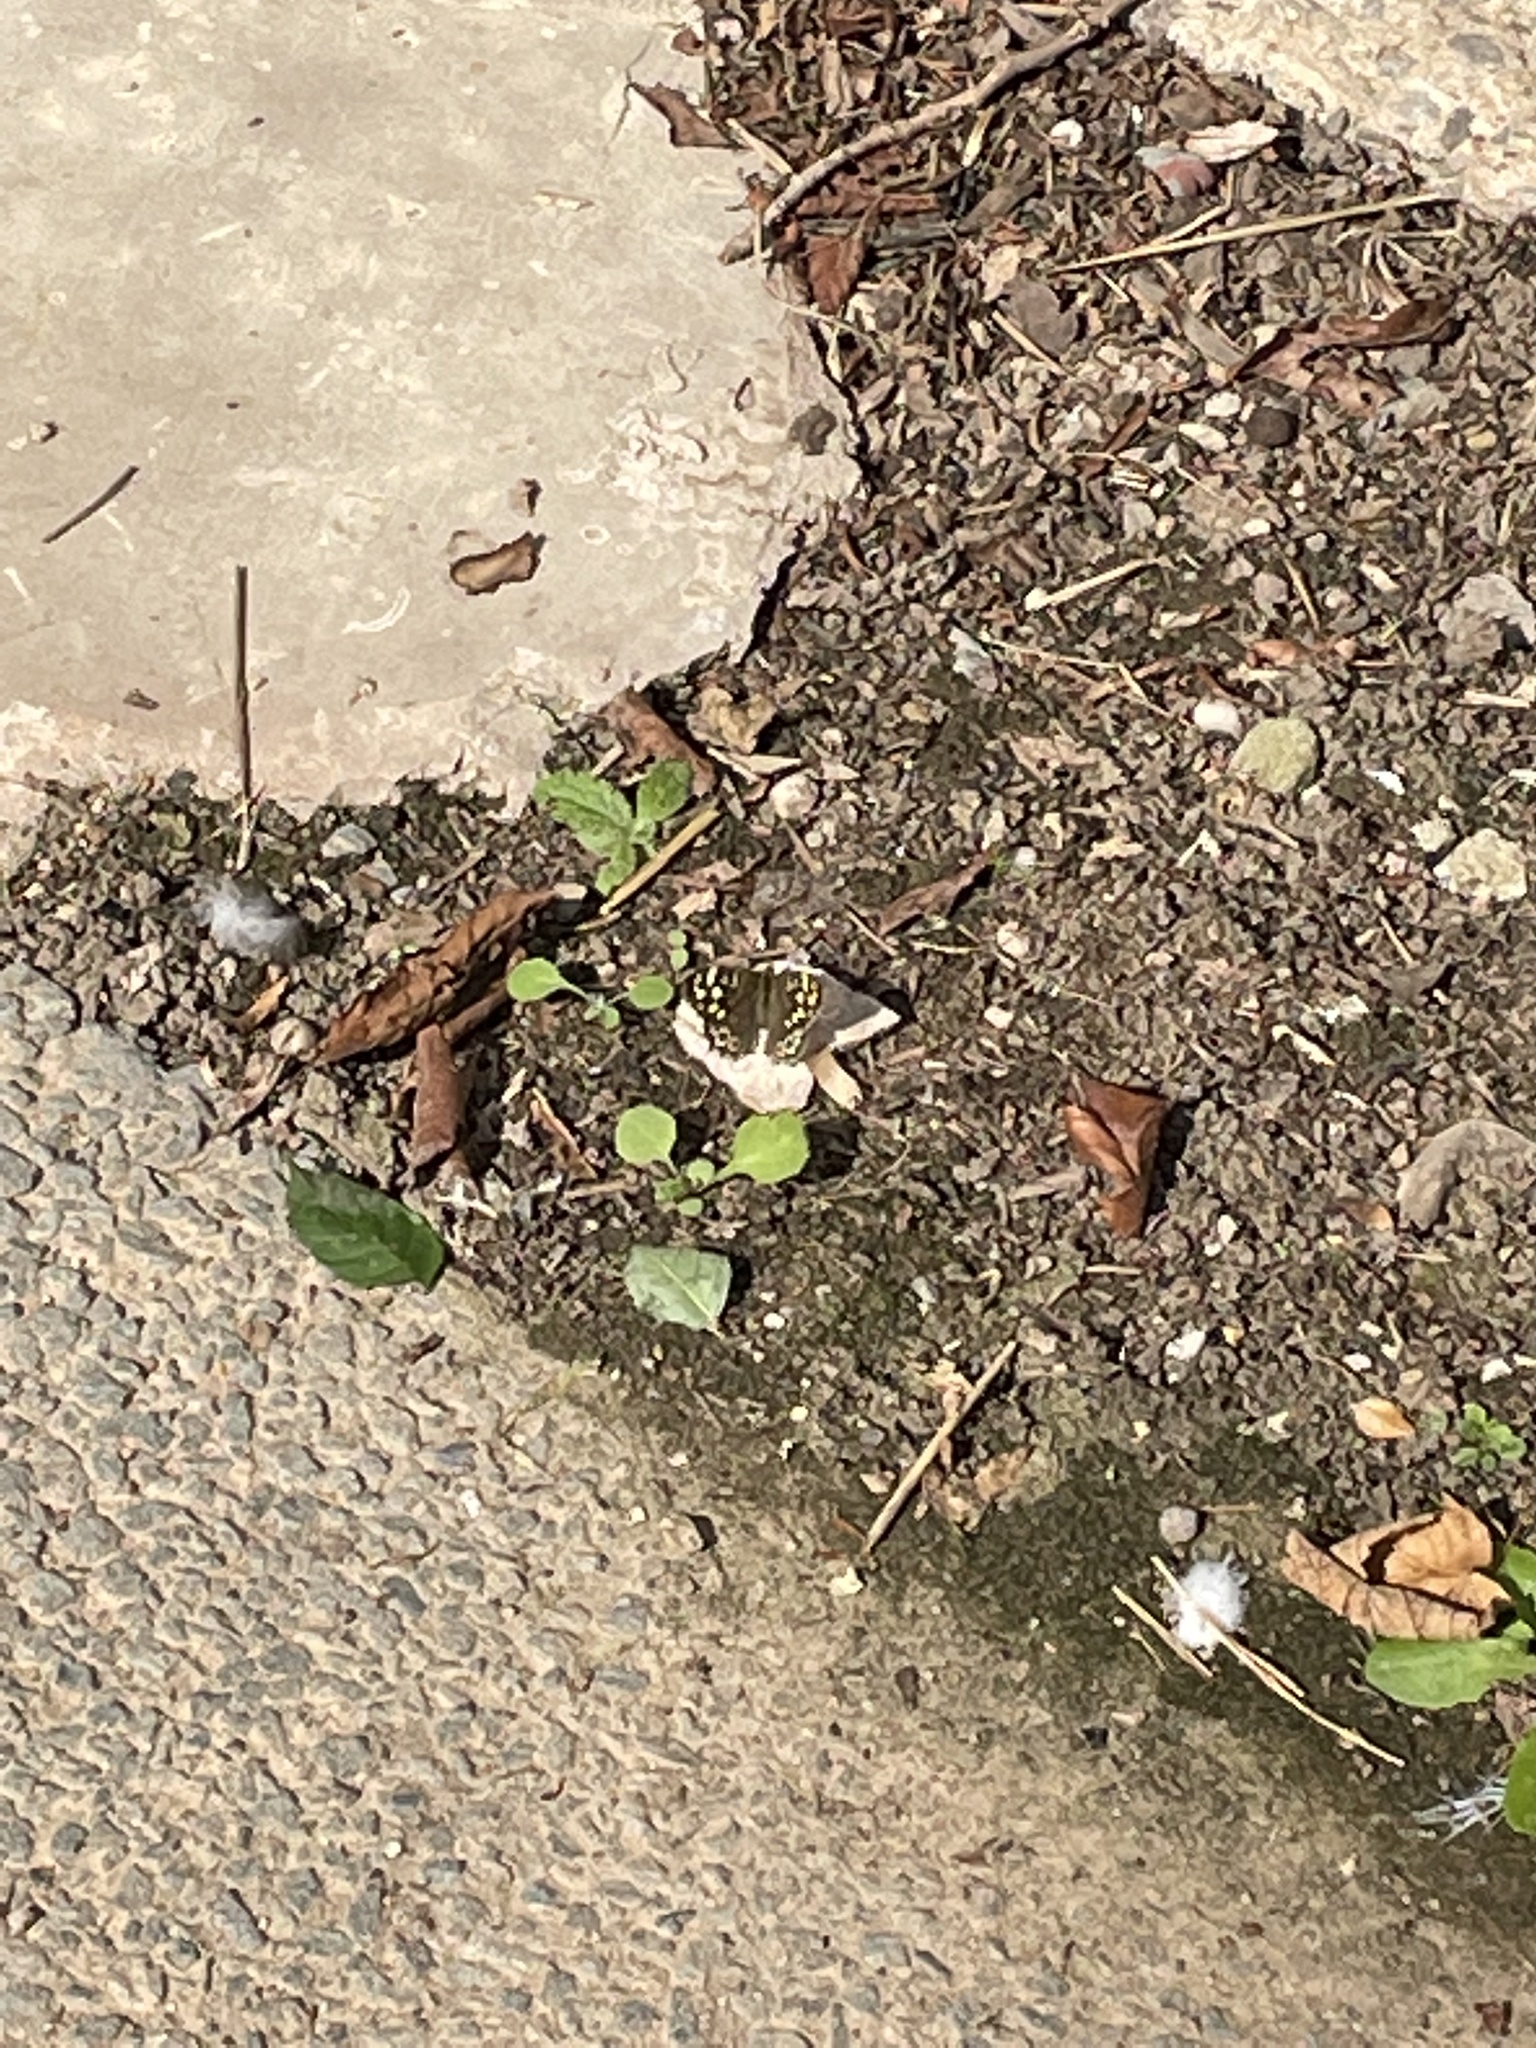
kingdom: Animalia
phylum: Arthropoda
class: Insecta
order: Lepidoptera
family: Nymphalidae
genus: Pararge
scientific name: Pararge aegeria
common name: Speckled wood
